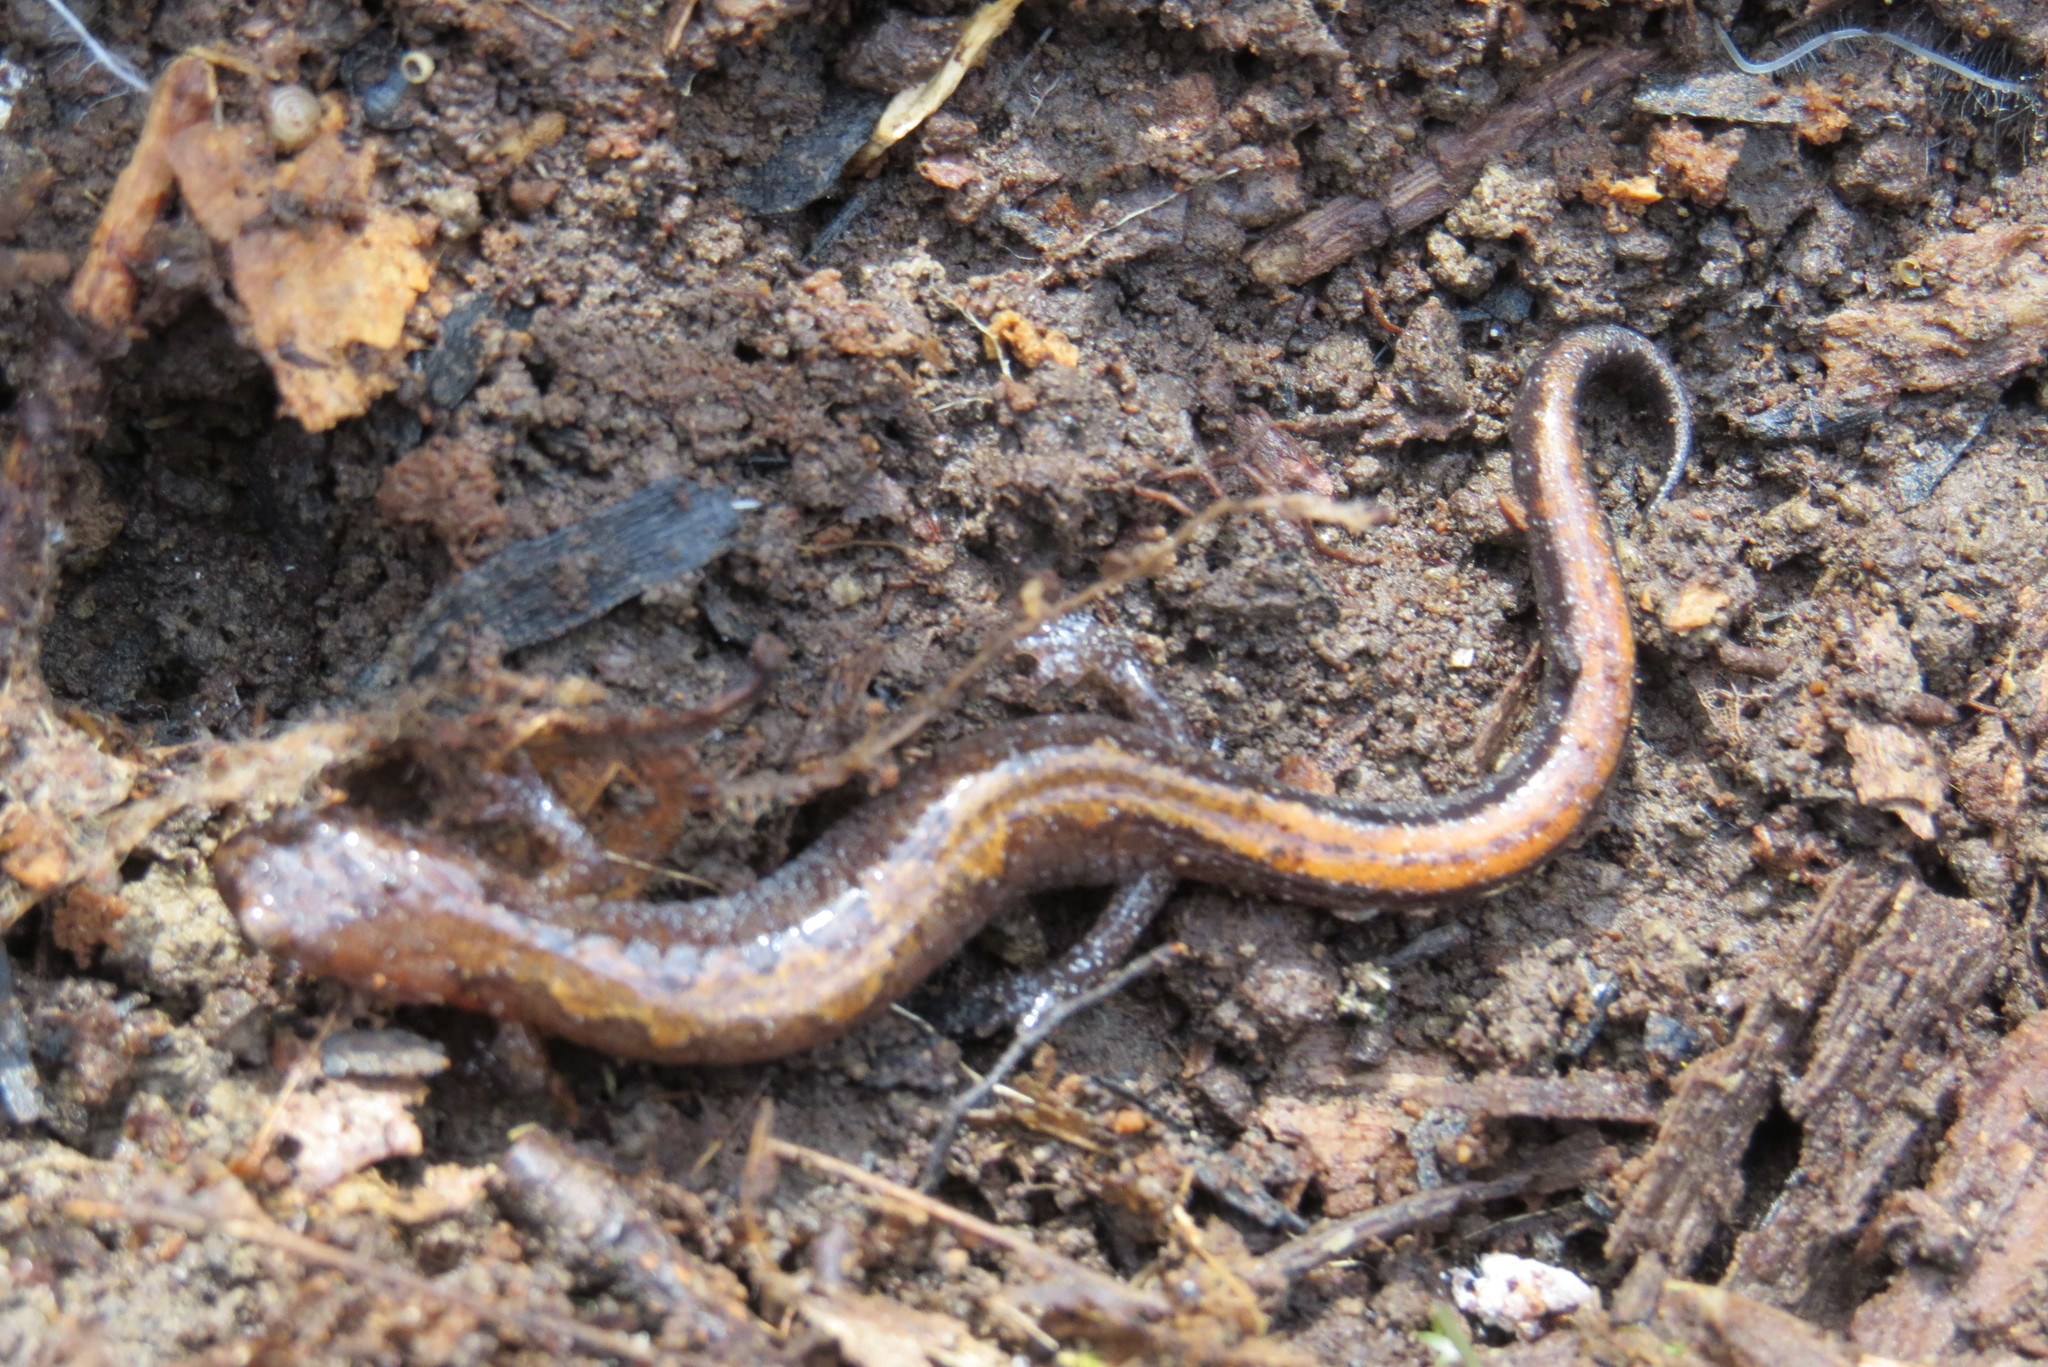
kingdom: Animalia
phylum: Chordata
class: Amphibia
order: Caudata
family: Plethodontidae
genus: Plethodon
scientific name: Plethodon dorsalis
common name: Northern zigzag salamander
